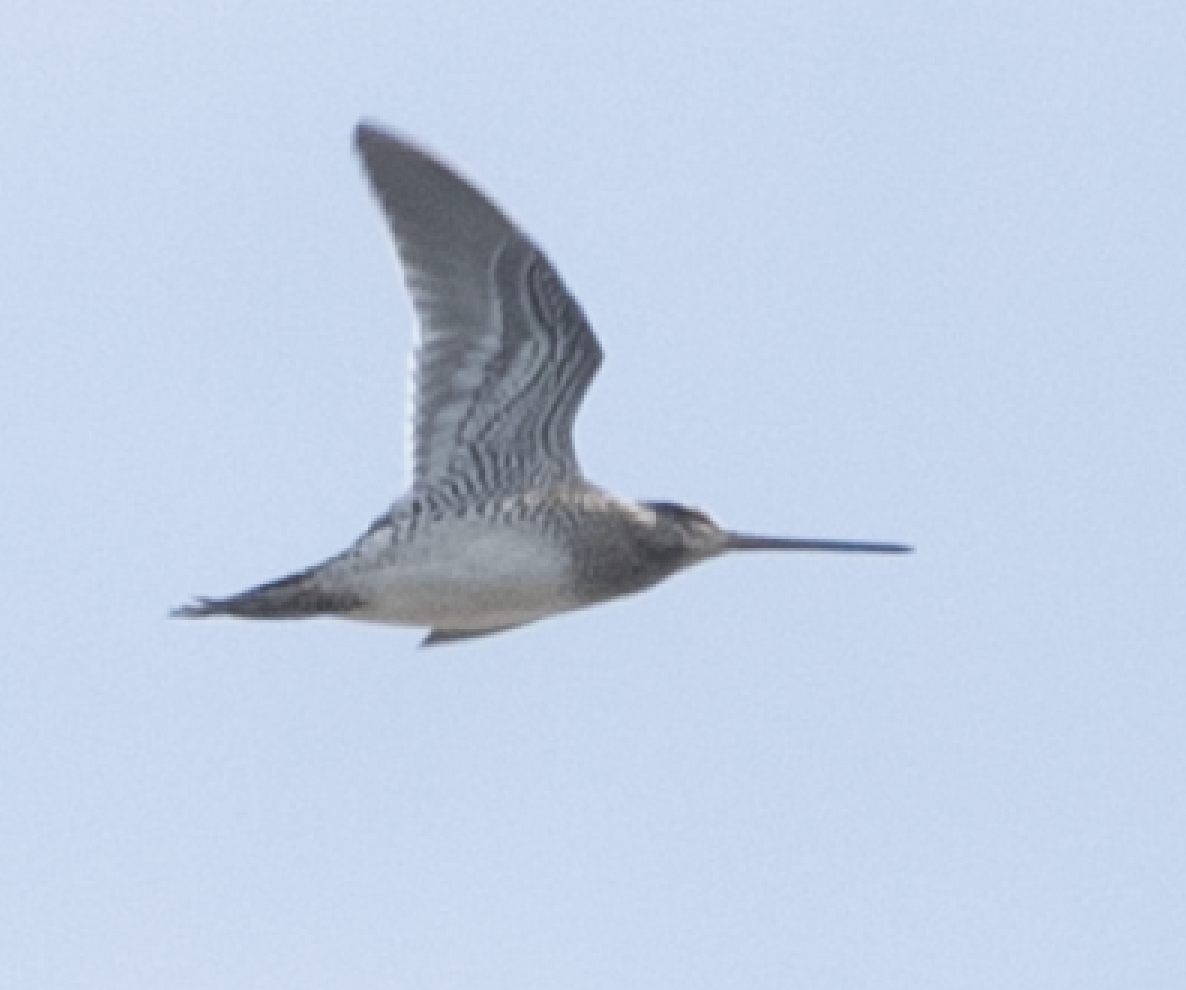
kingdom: Animalia
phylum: Chordata
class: Aves
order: Charadriiformes
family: Scolopacidae
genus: Gallinago
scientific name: Gallinago gallinago
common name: Common snipe
